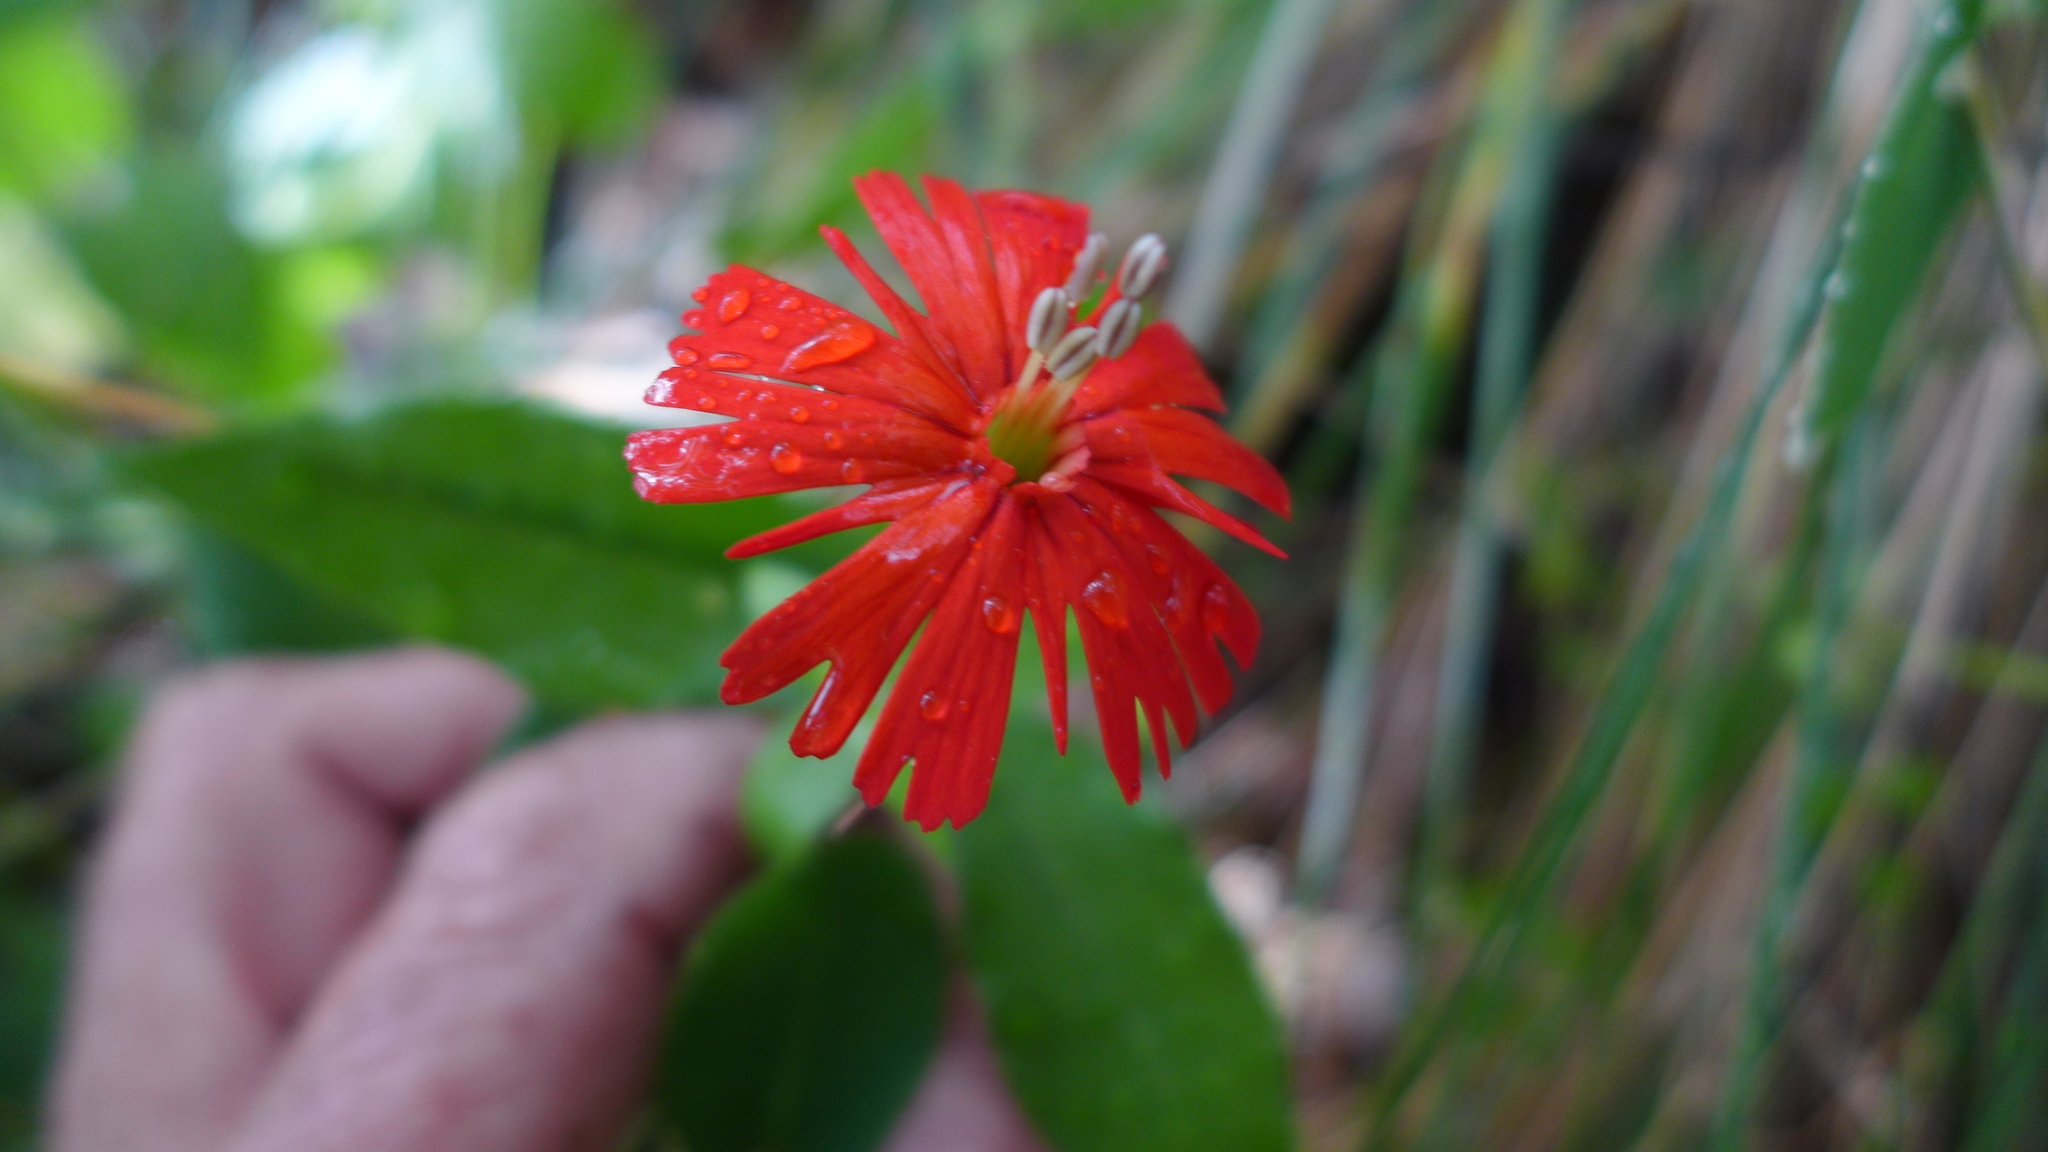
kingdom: Plantae
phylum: Tracheophyta
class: Magnoliopsida
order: Caryophyllales
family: Caryophyllaceae
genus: Silene
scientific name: Silene laciniata
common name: Indian-pink
